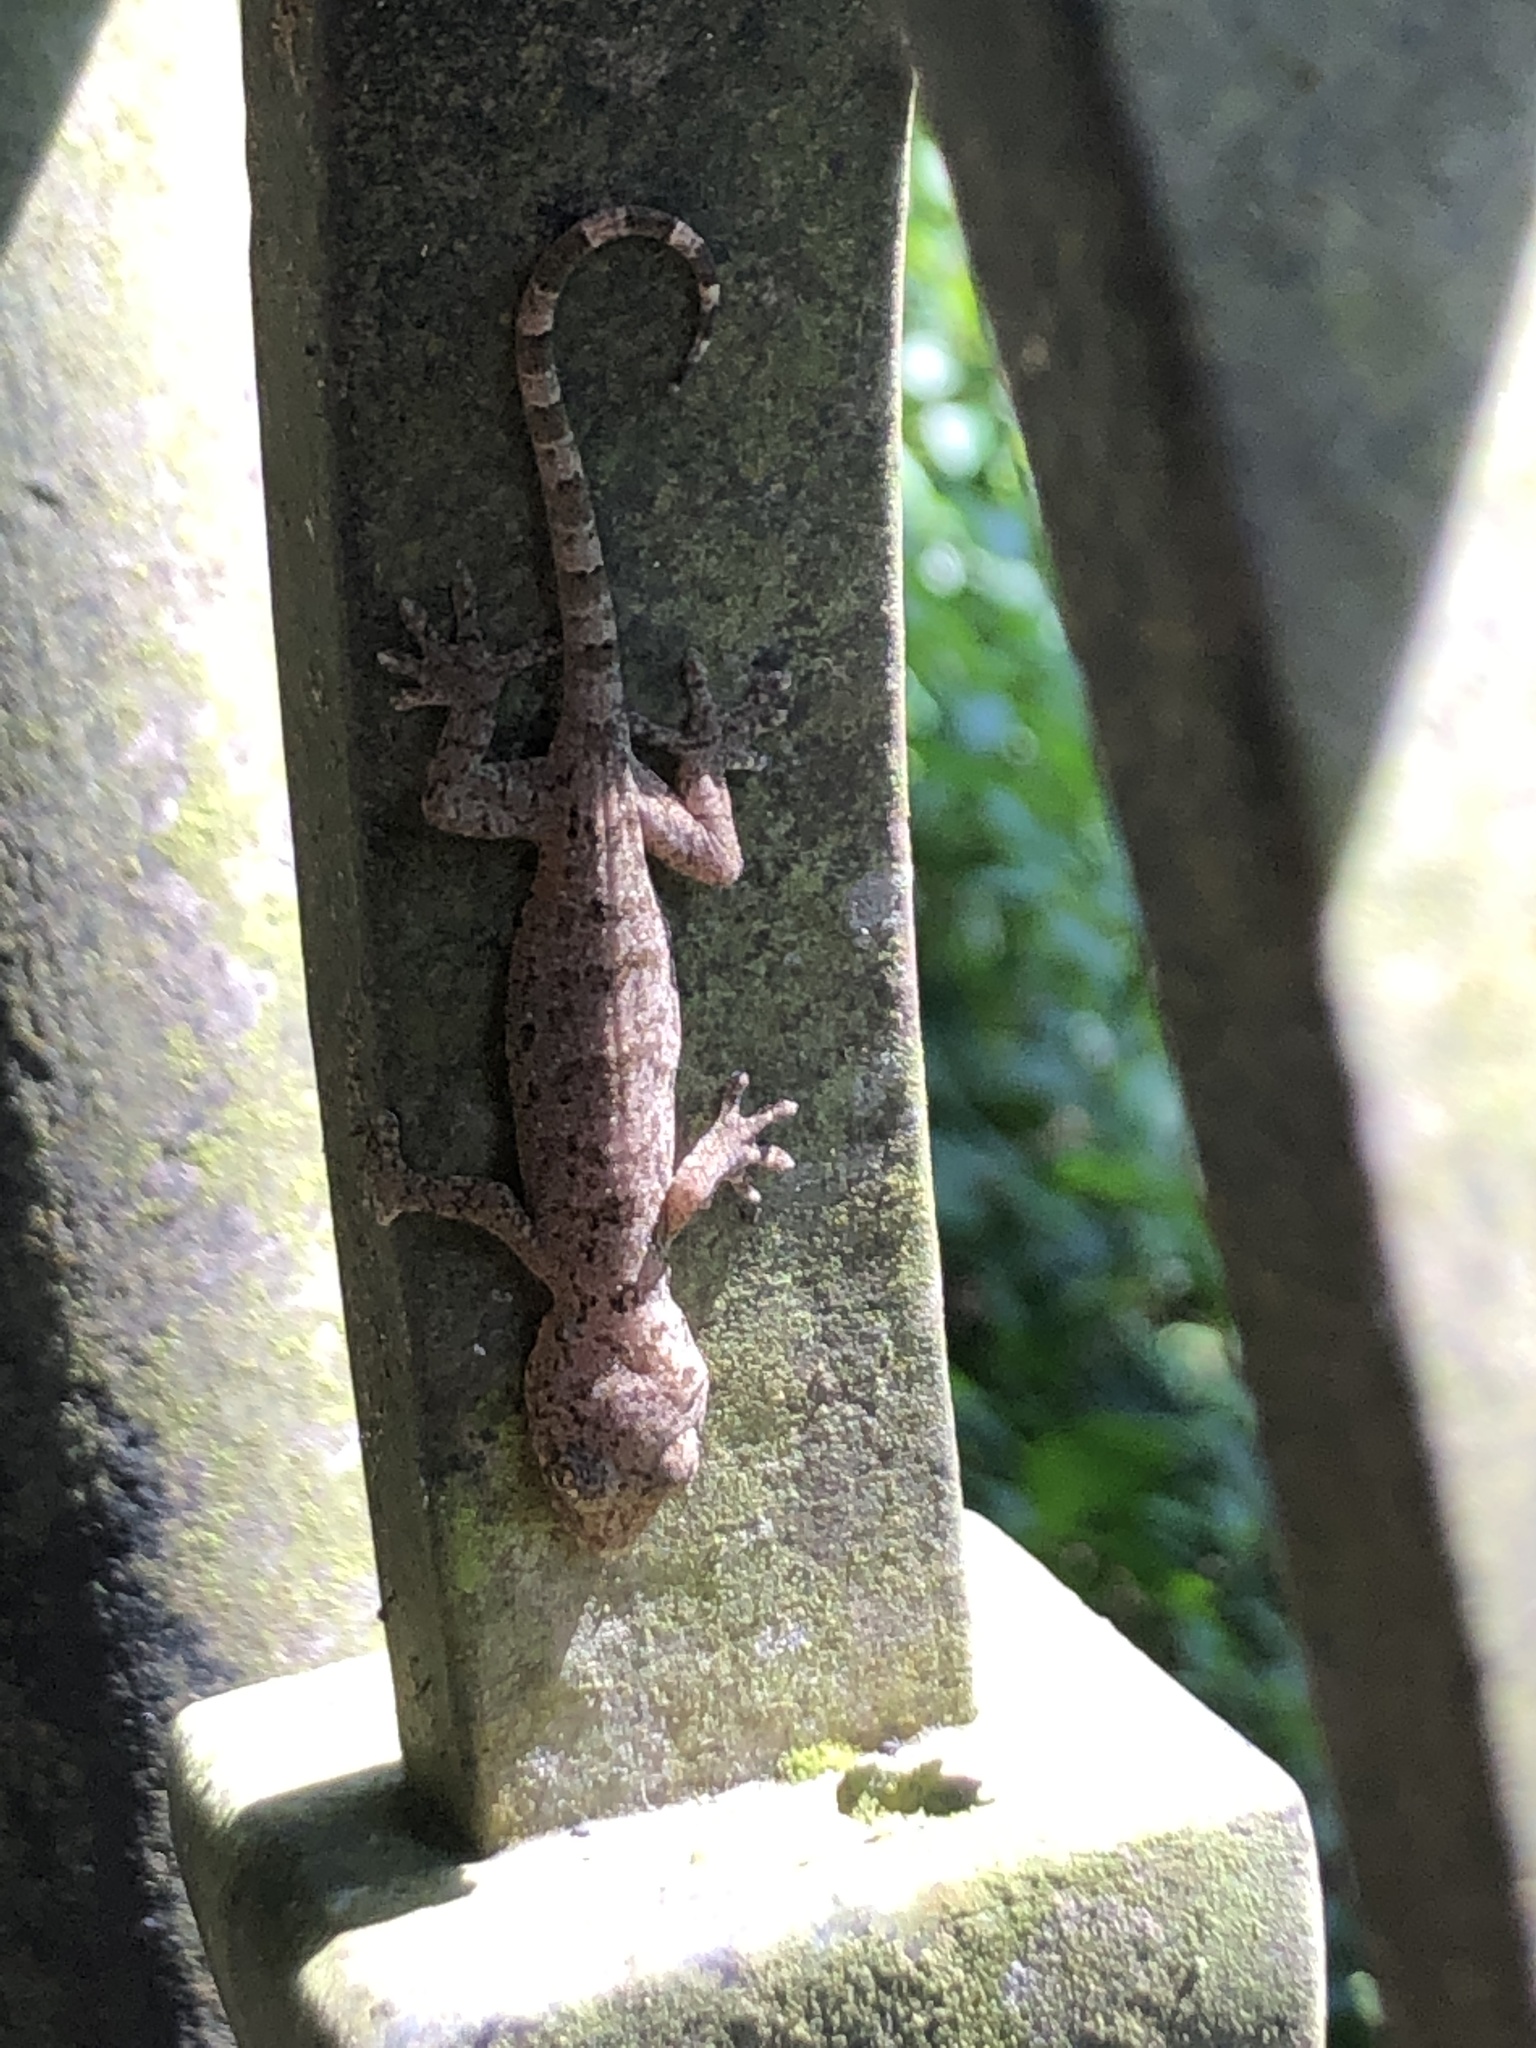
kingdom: Animalia
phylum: Chordata
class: Squamata
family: Gekkonidae
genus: Gekko
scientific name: Gekko chinensis
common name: Gray's chinese gecko
